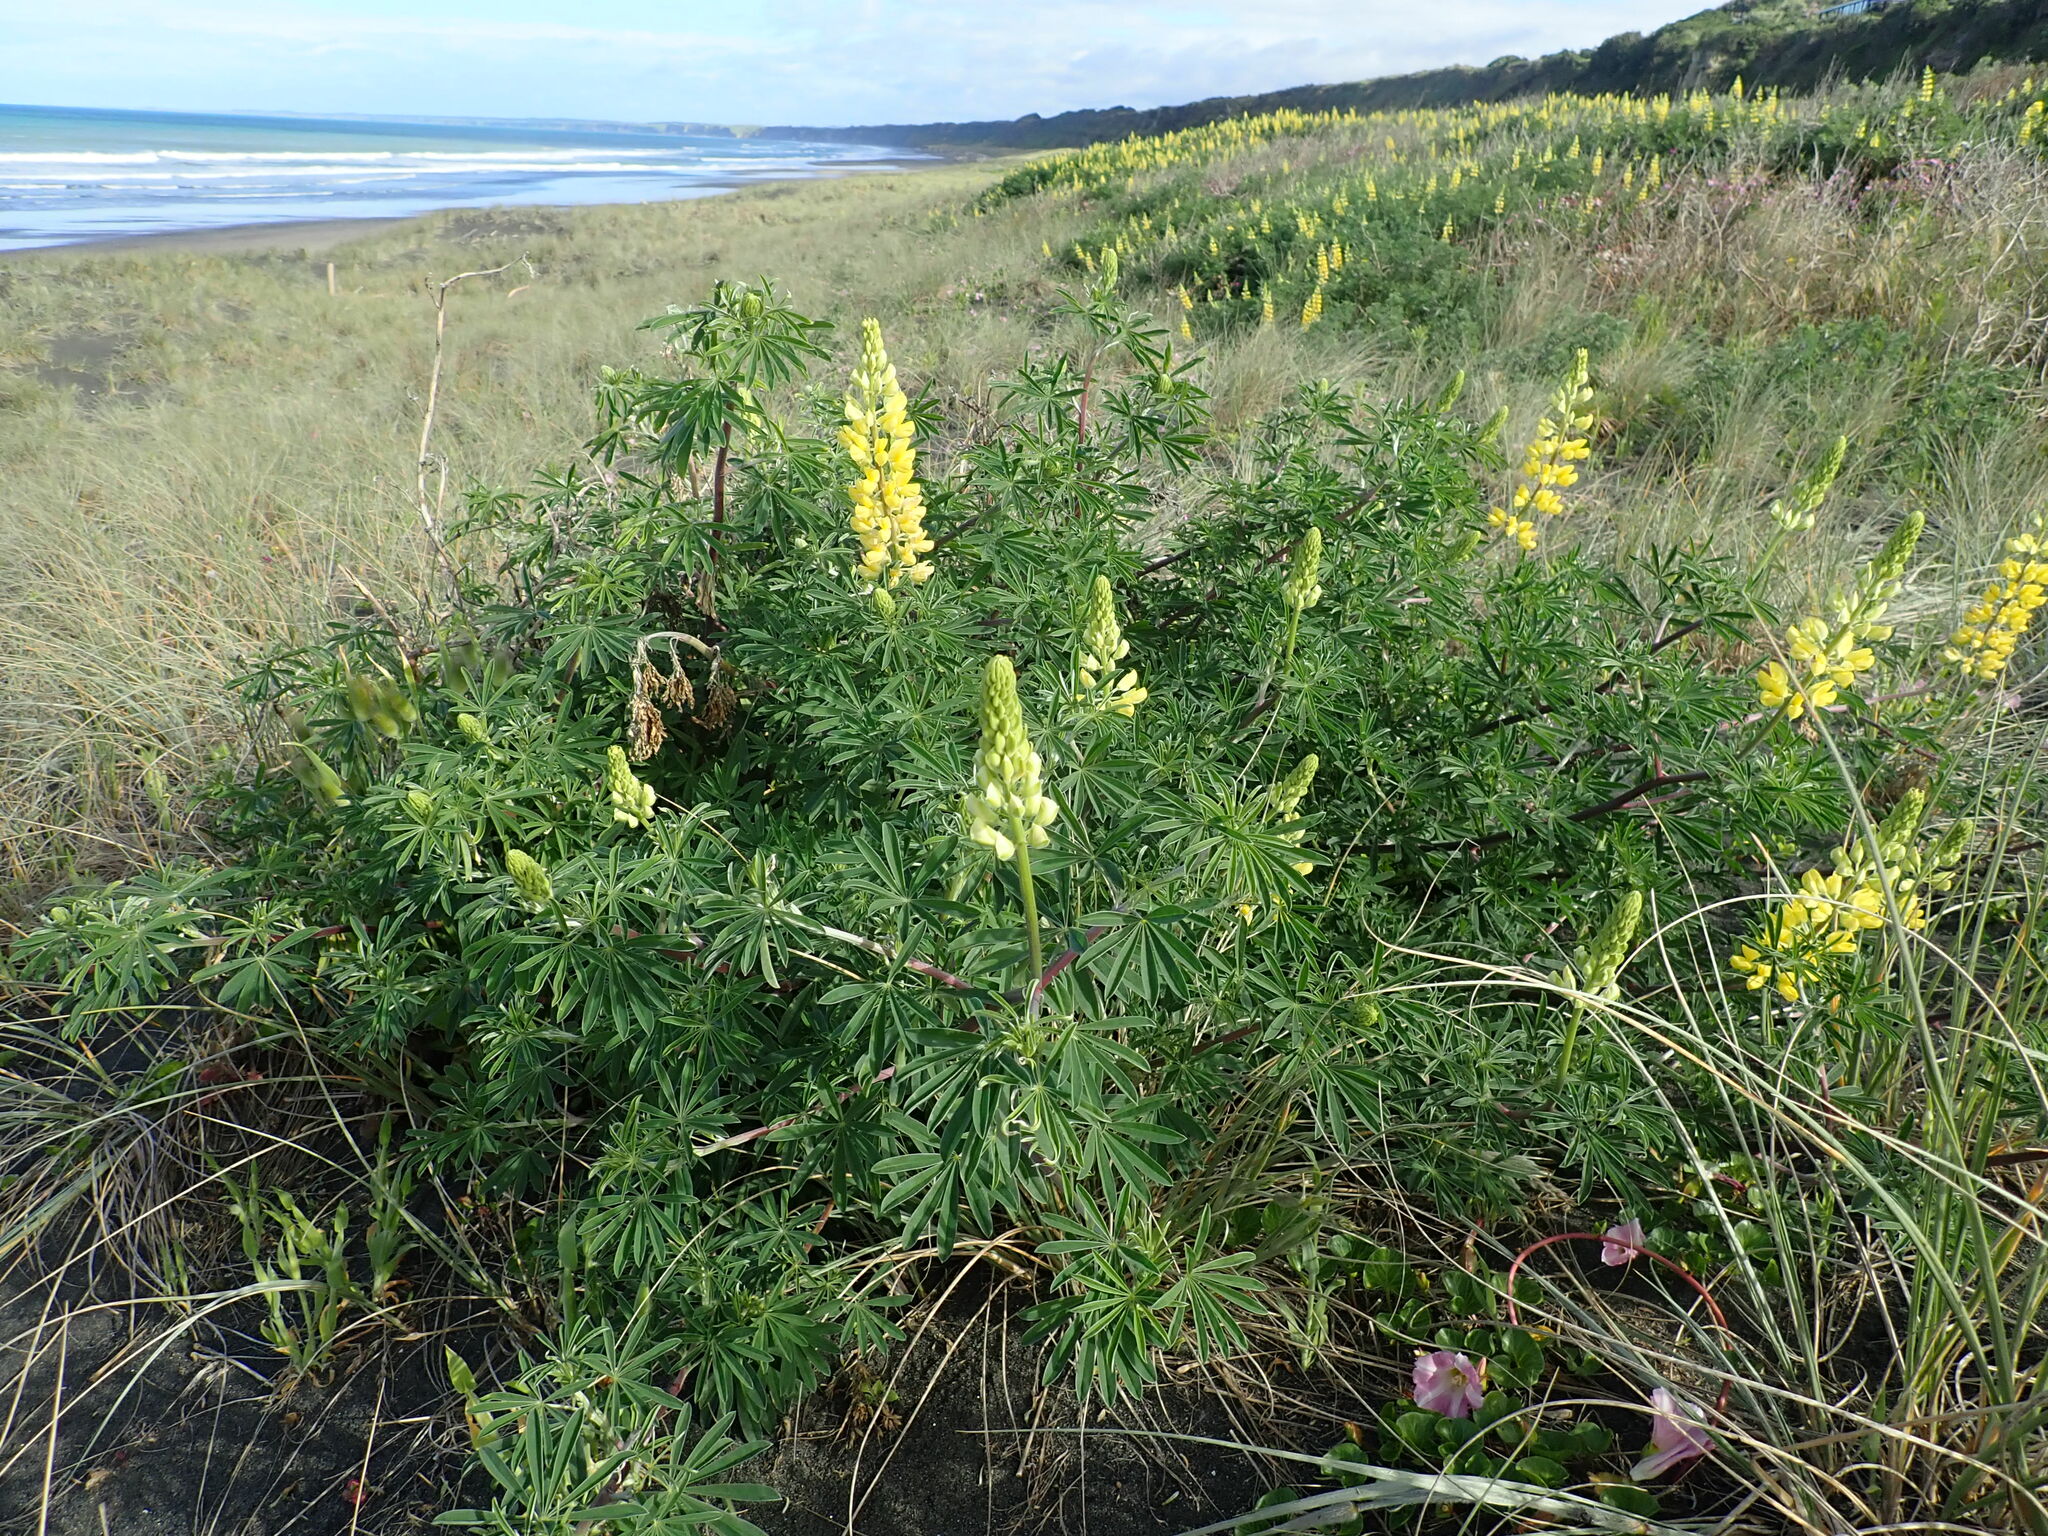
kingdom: Plantae
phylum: Tracheophyta
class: Magnoliopsida
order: Fabales
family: Fabaceae
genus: Lupinus
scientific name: Lupinus arboreus
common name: Yellow bush lupine
